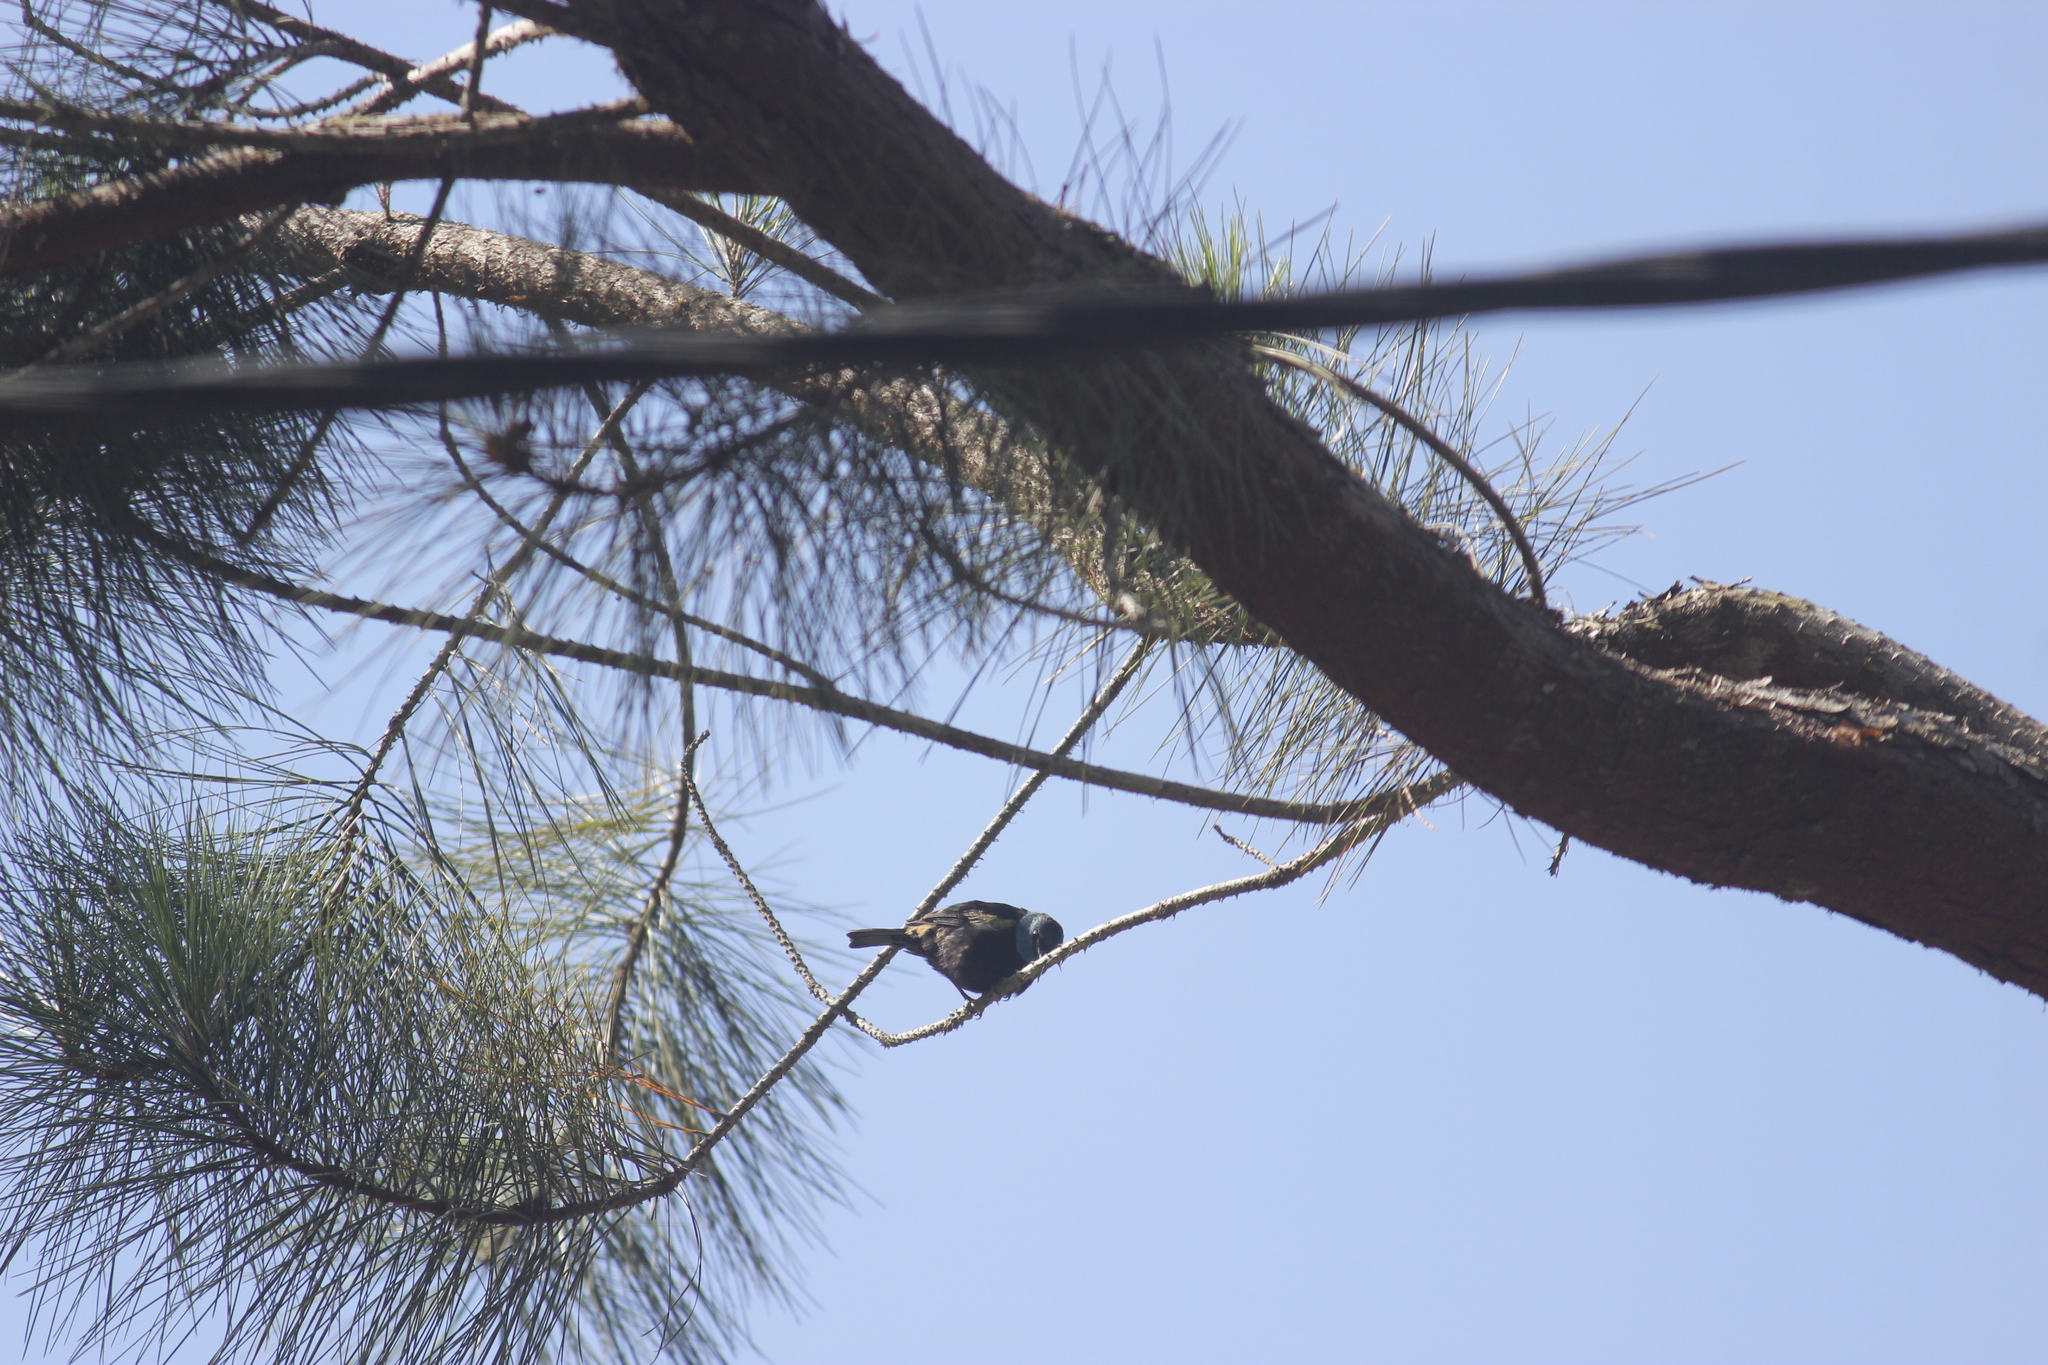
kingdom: Animalia
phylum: Chordata
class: Aves
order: Passeriformes
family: Thraupidae
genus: Stilpnia
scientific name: Stilpnia cyanicollis
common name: Blue-necked tanager
